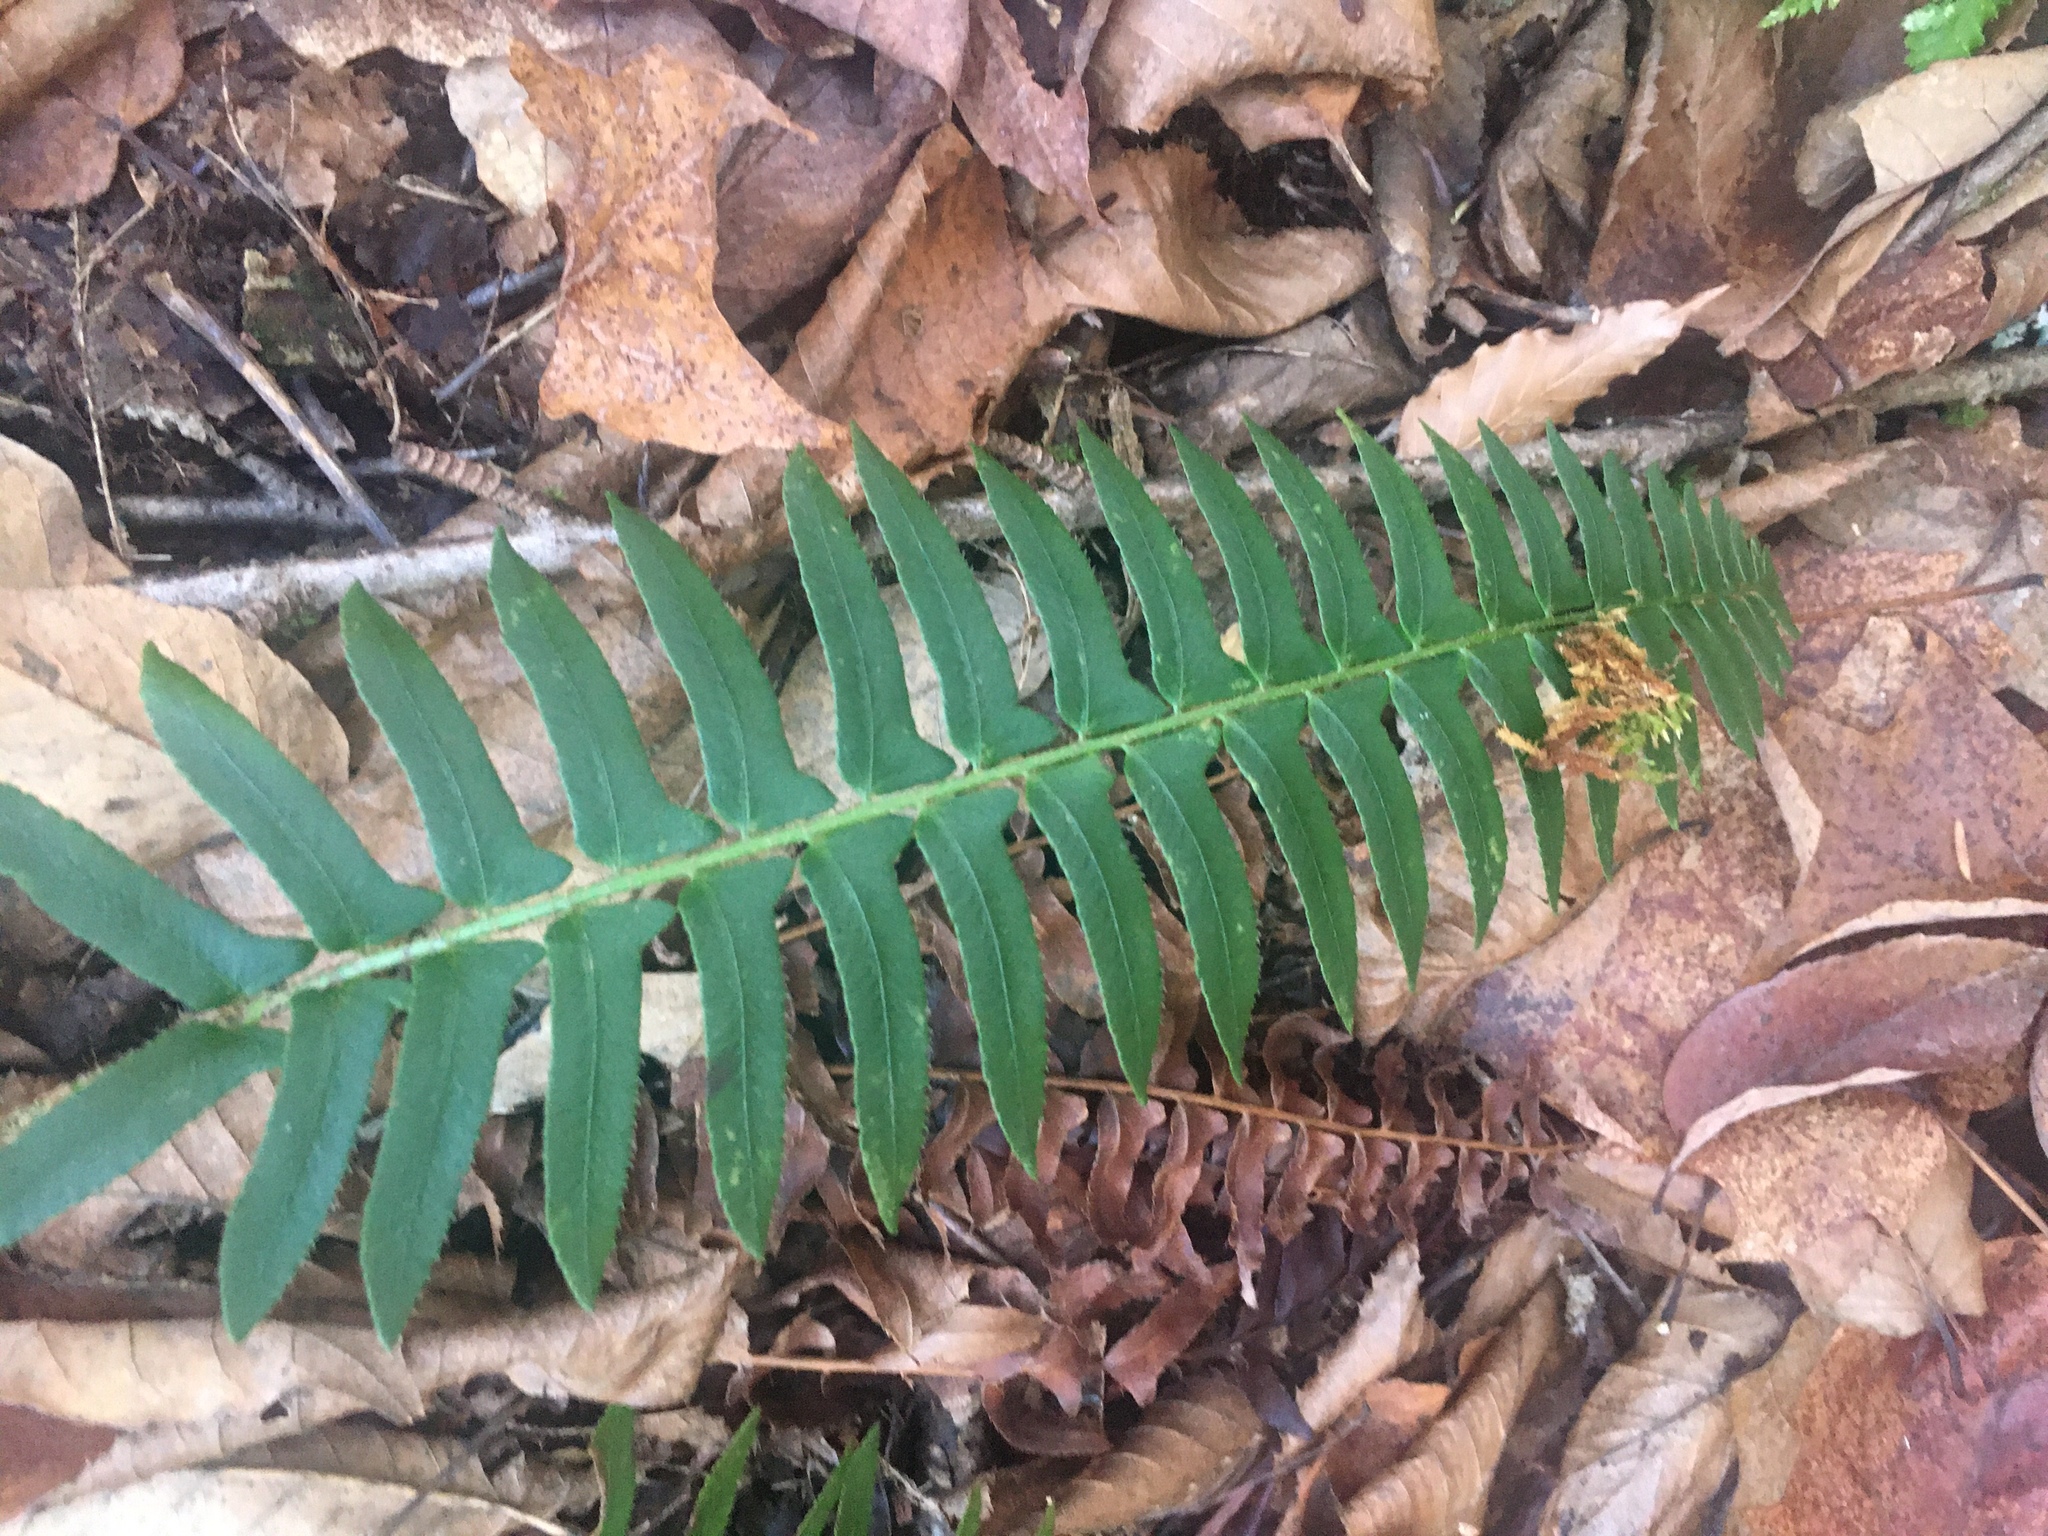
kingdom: Plantae
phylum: Tracheophyta
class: Polypodiopsida
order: Polypodiales
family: Dryopteridaceae
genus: Polystichum
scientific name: Polystichum acrostichoides
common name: Christmas fern
